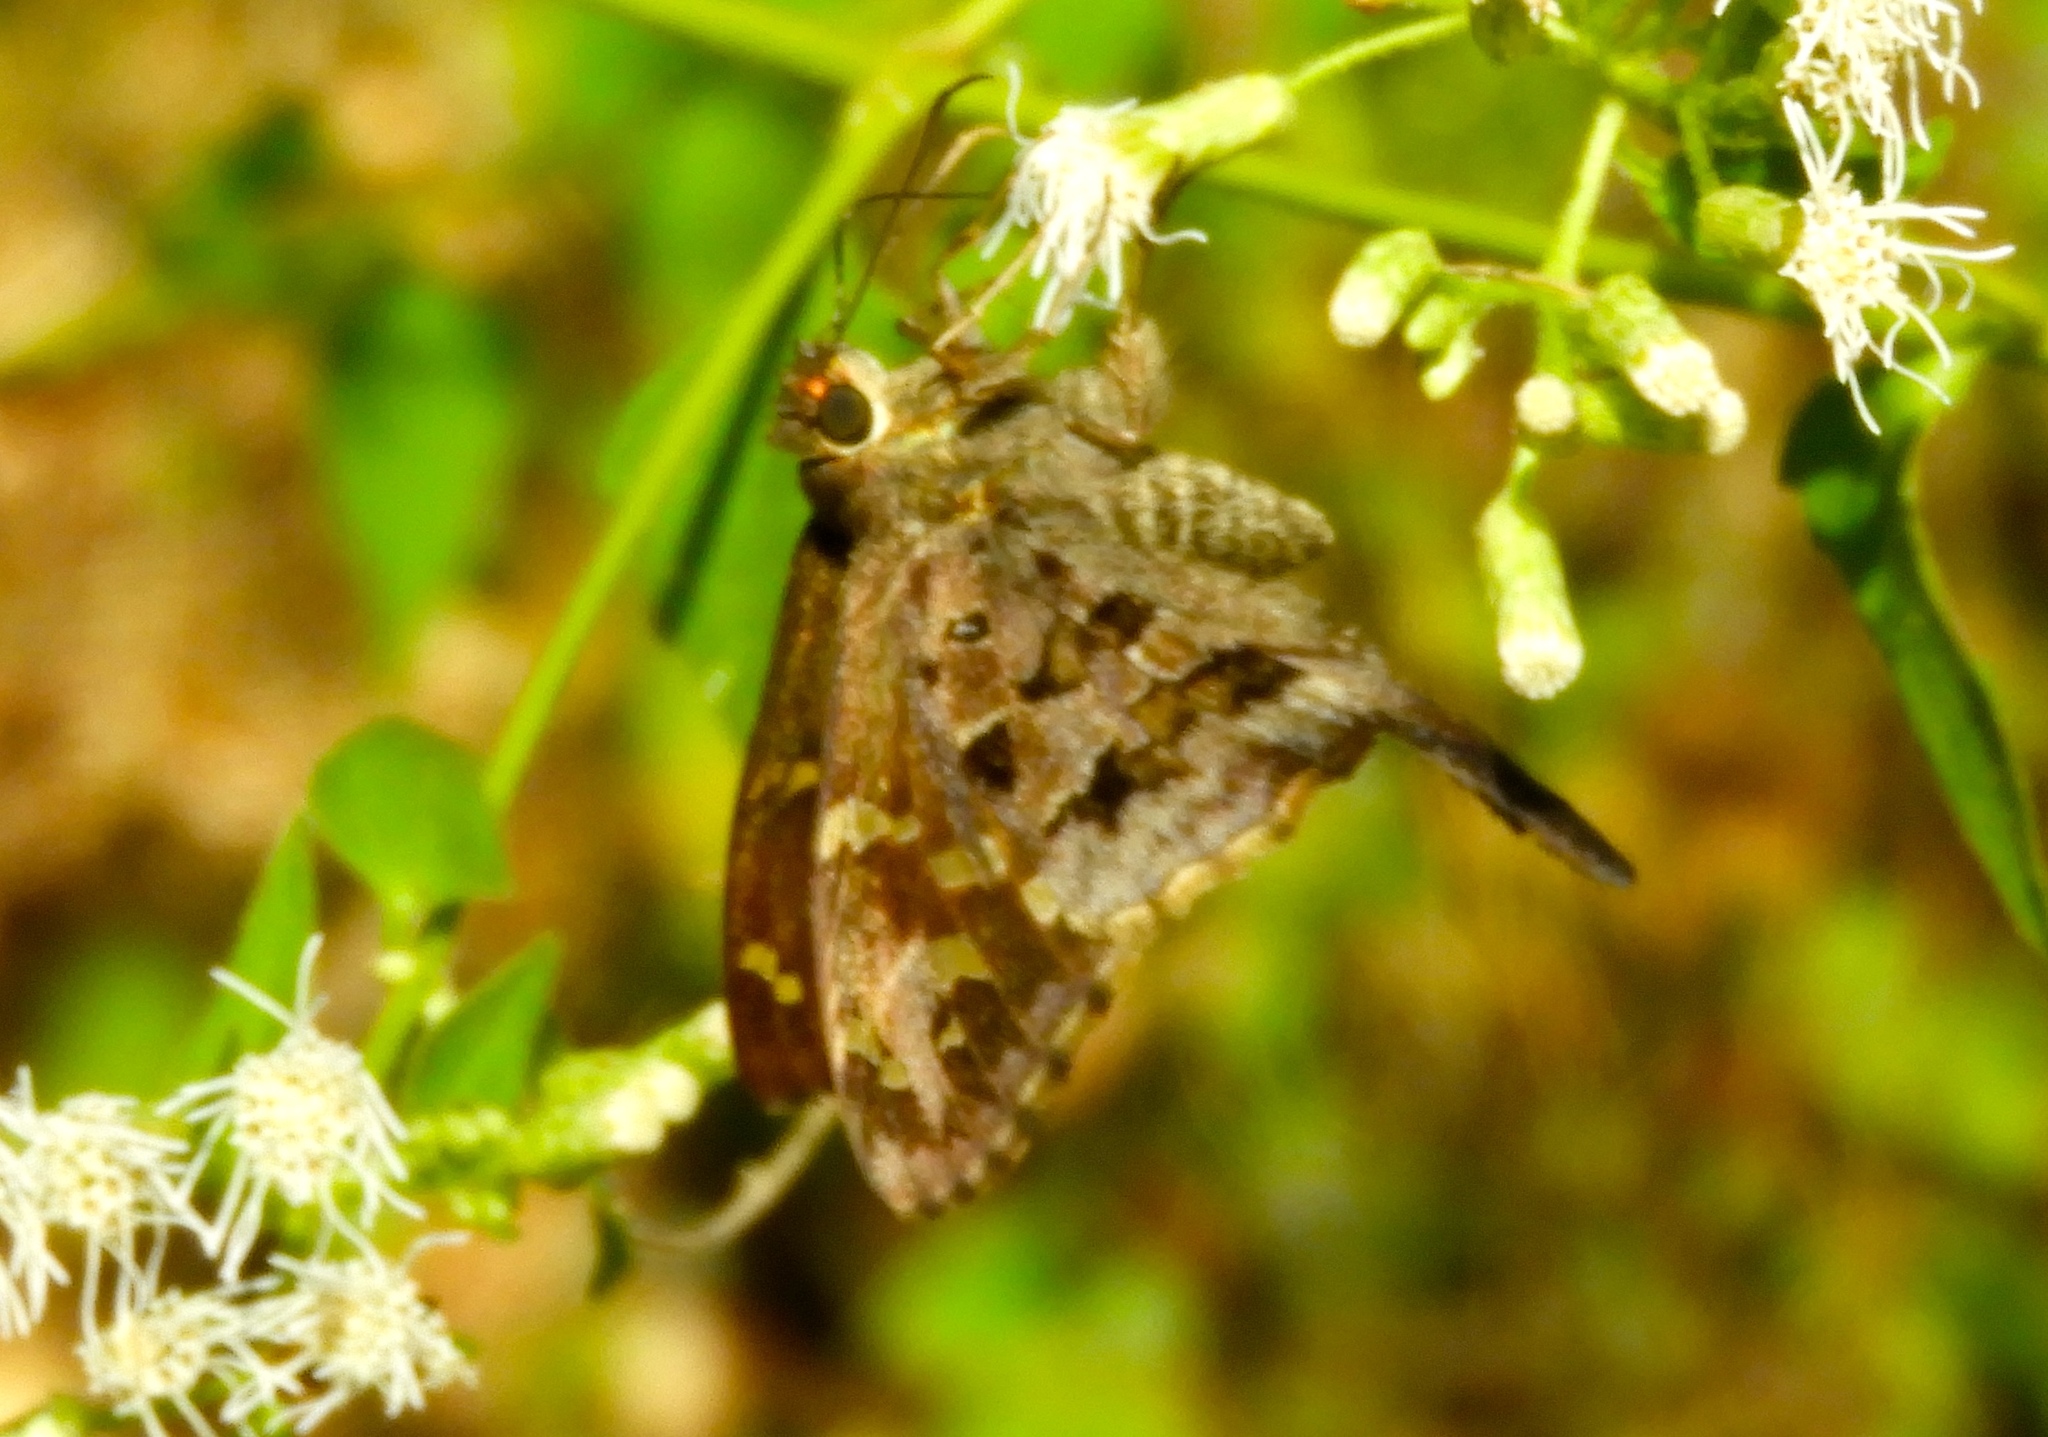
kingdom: Animalia
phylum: Arthropoda
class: Insecta
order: Lepidoptera
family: Hesperiidae
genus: Thorybes
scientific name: Thorybes
